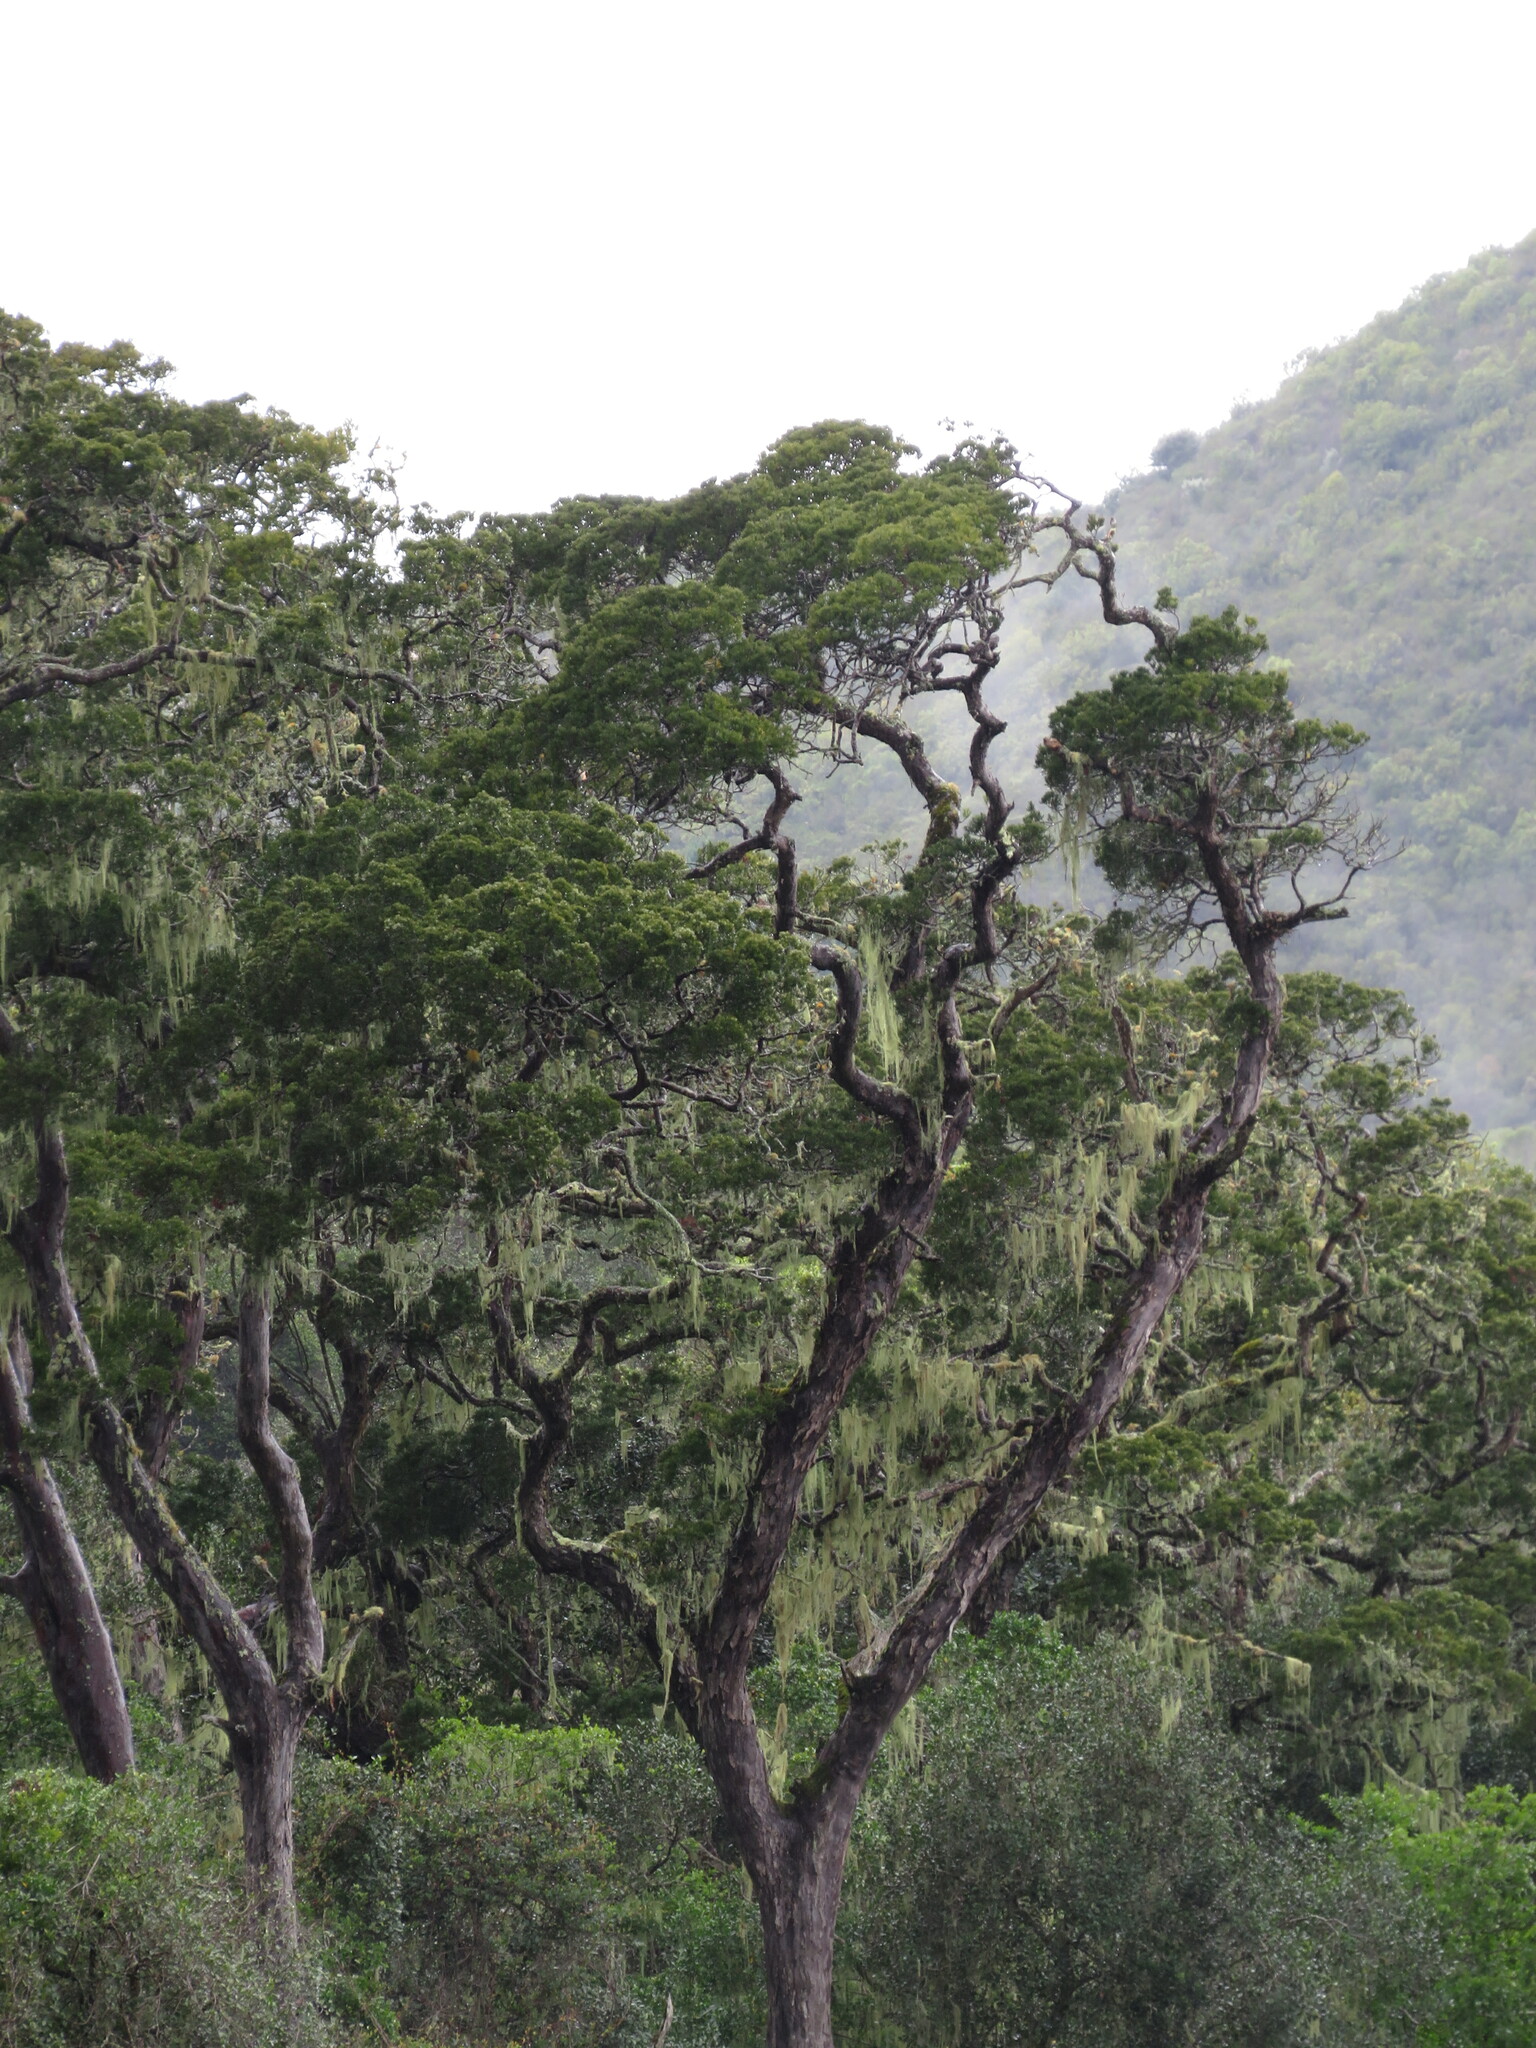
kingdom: Plantae
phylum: Tracheophyta
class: Pinopsida
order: Pinales
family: Podocarpaceae
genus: Afrocarpus
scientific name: Afrocarpus falcatus
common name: Bastard yellowwood
